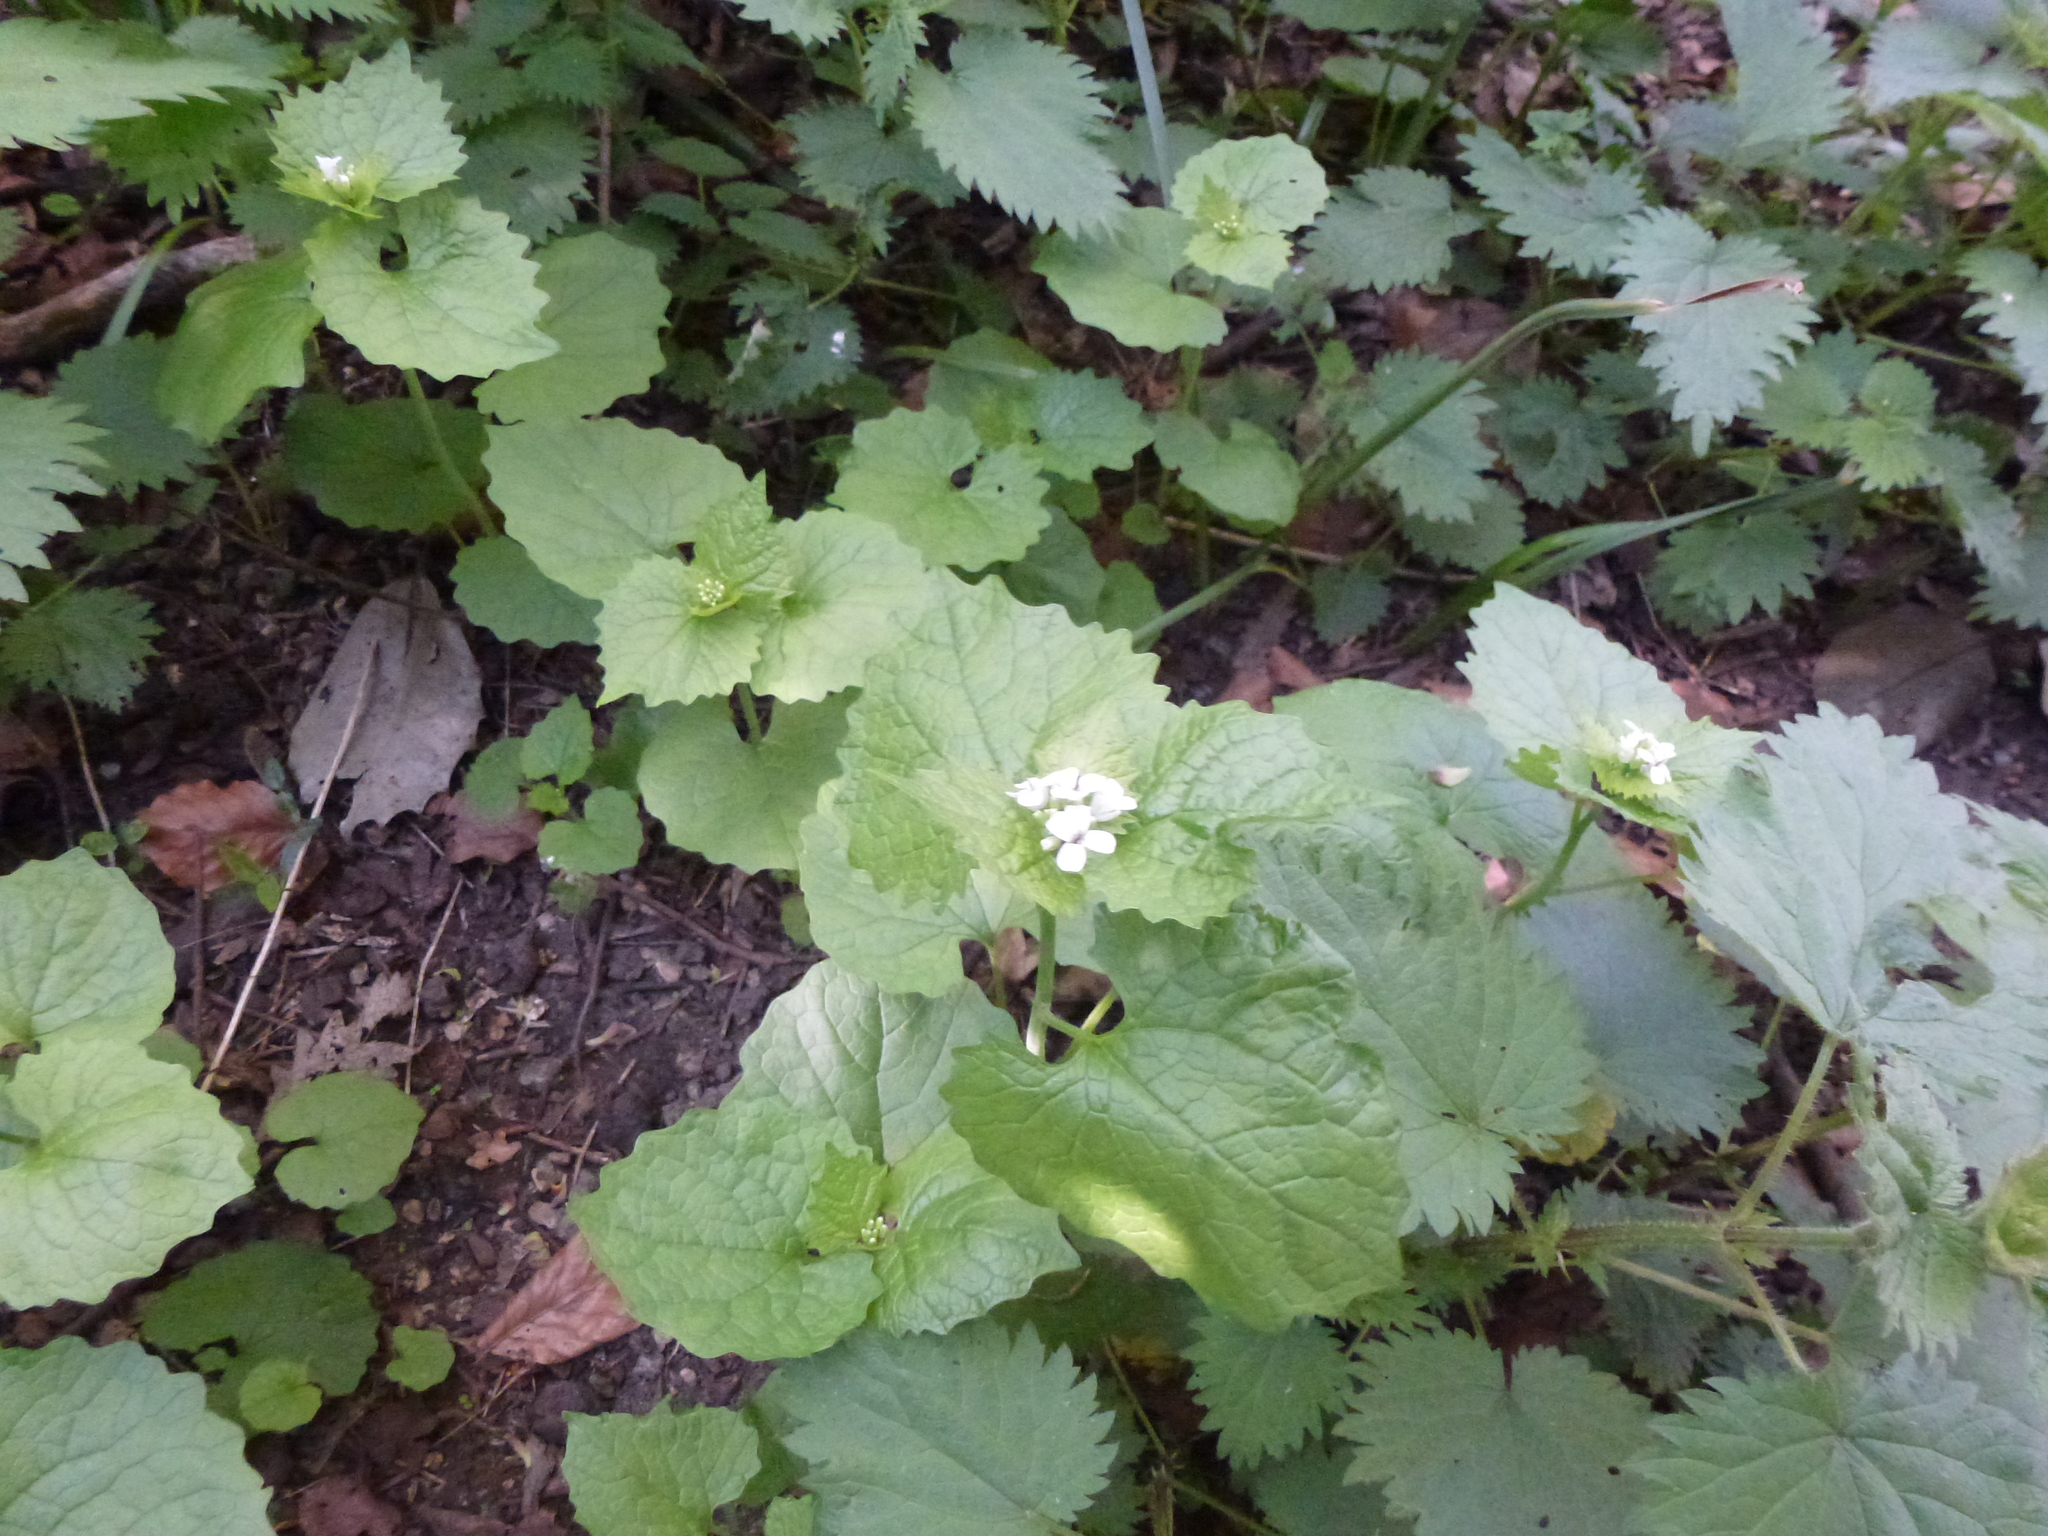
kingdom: Plantae
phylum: Tracheophyta
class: Magnoliopsida
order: Brassicales
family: Brassicaceae
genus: Alliaria
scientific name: Alliaria petiolata
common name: Garlic mustard
